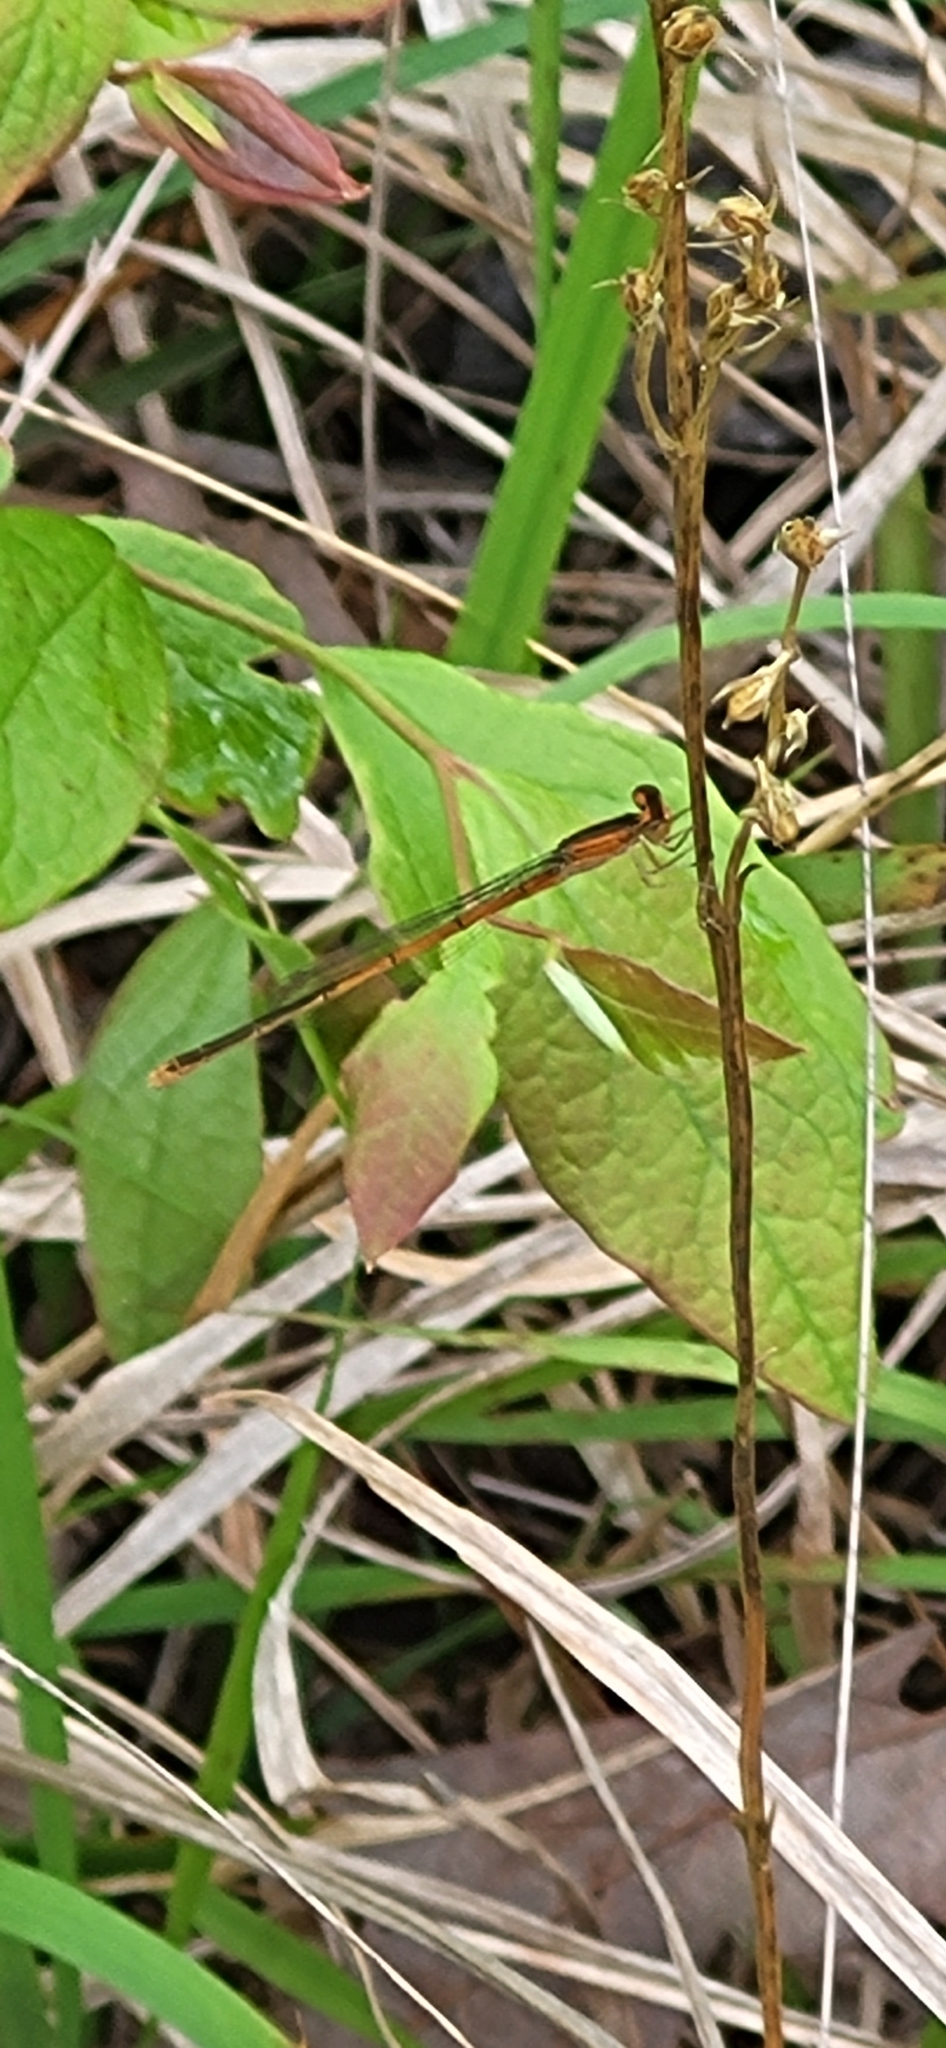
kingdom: Animalia
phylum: Arthropoda
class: Insecta
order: Odonata
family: Coenagrionidae
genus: Ischnura
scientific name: Ischnura hastata
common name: Citrine forktail
